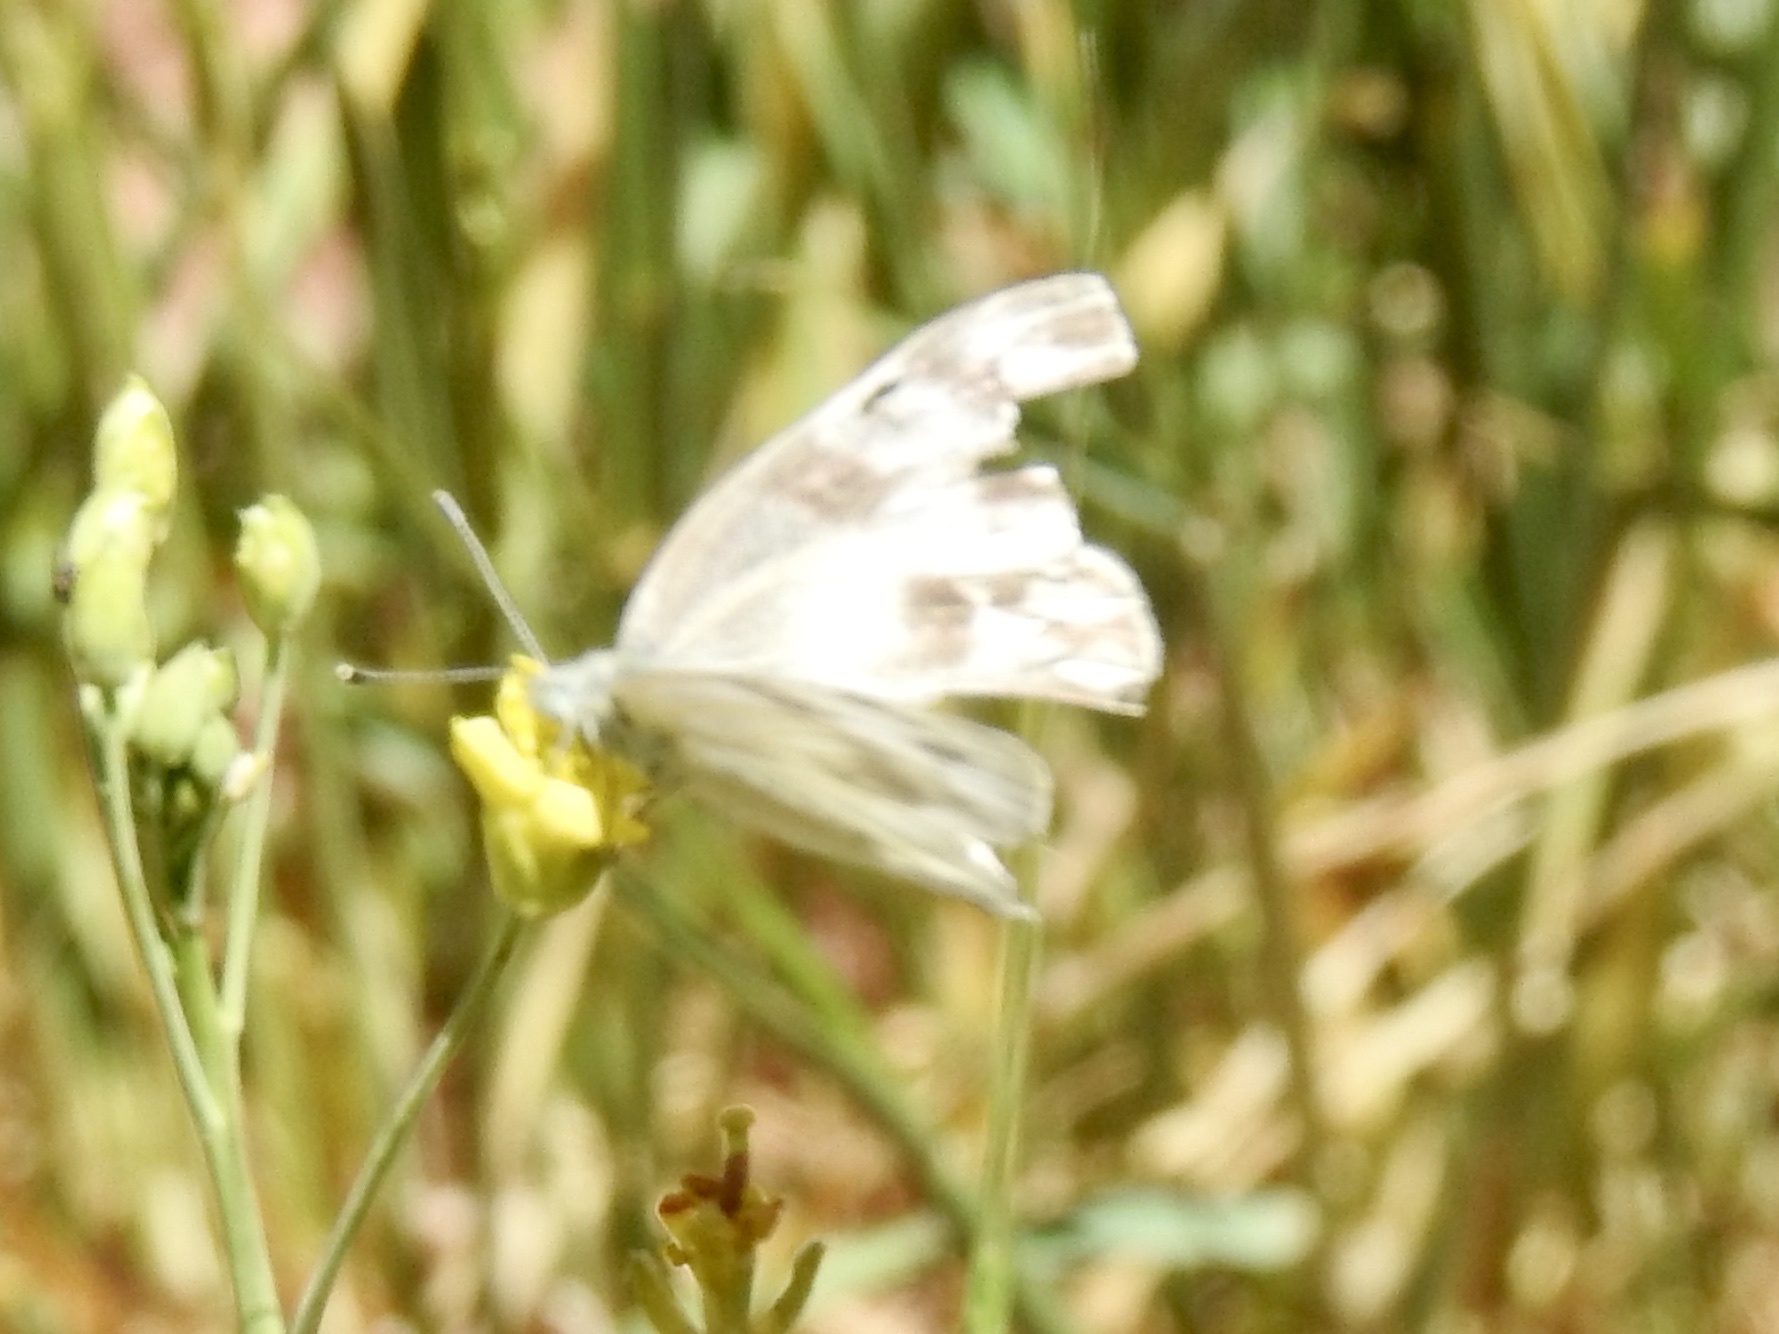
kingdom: Animalia
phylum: Arthropoda
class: Insecta
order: Lepidoptera
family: Pieridae
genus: Pontia
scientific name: Pontia protodice
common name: Checkered white
